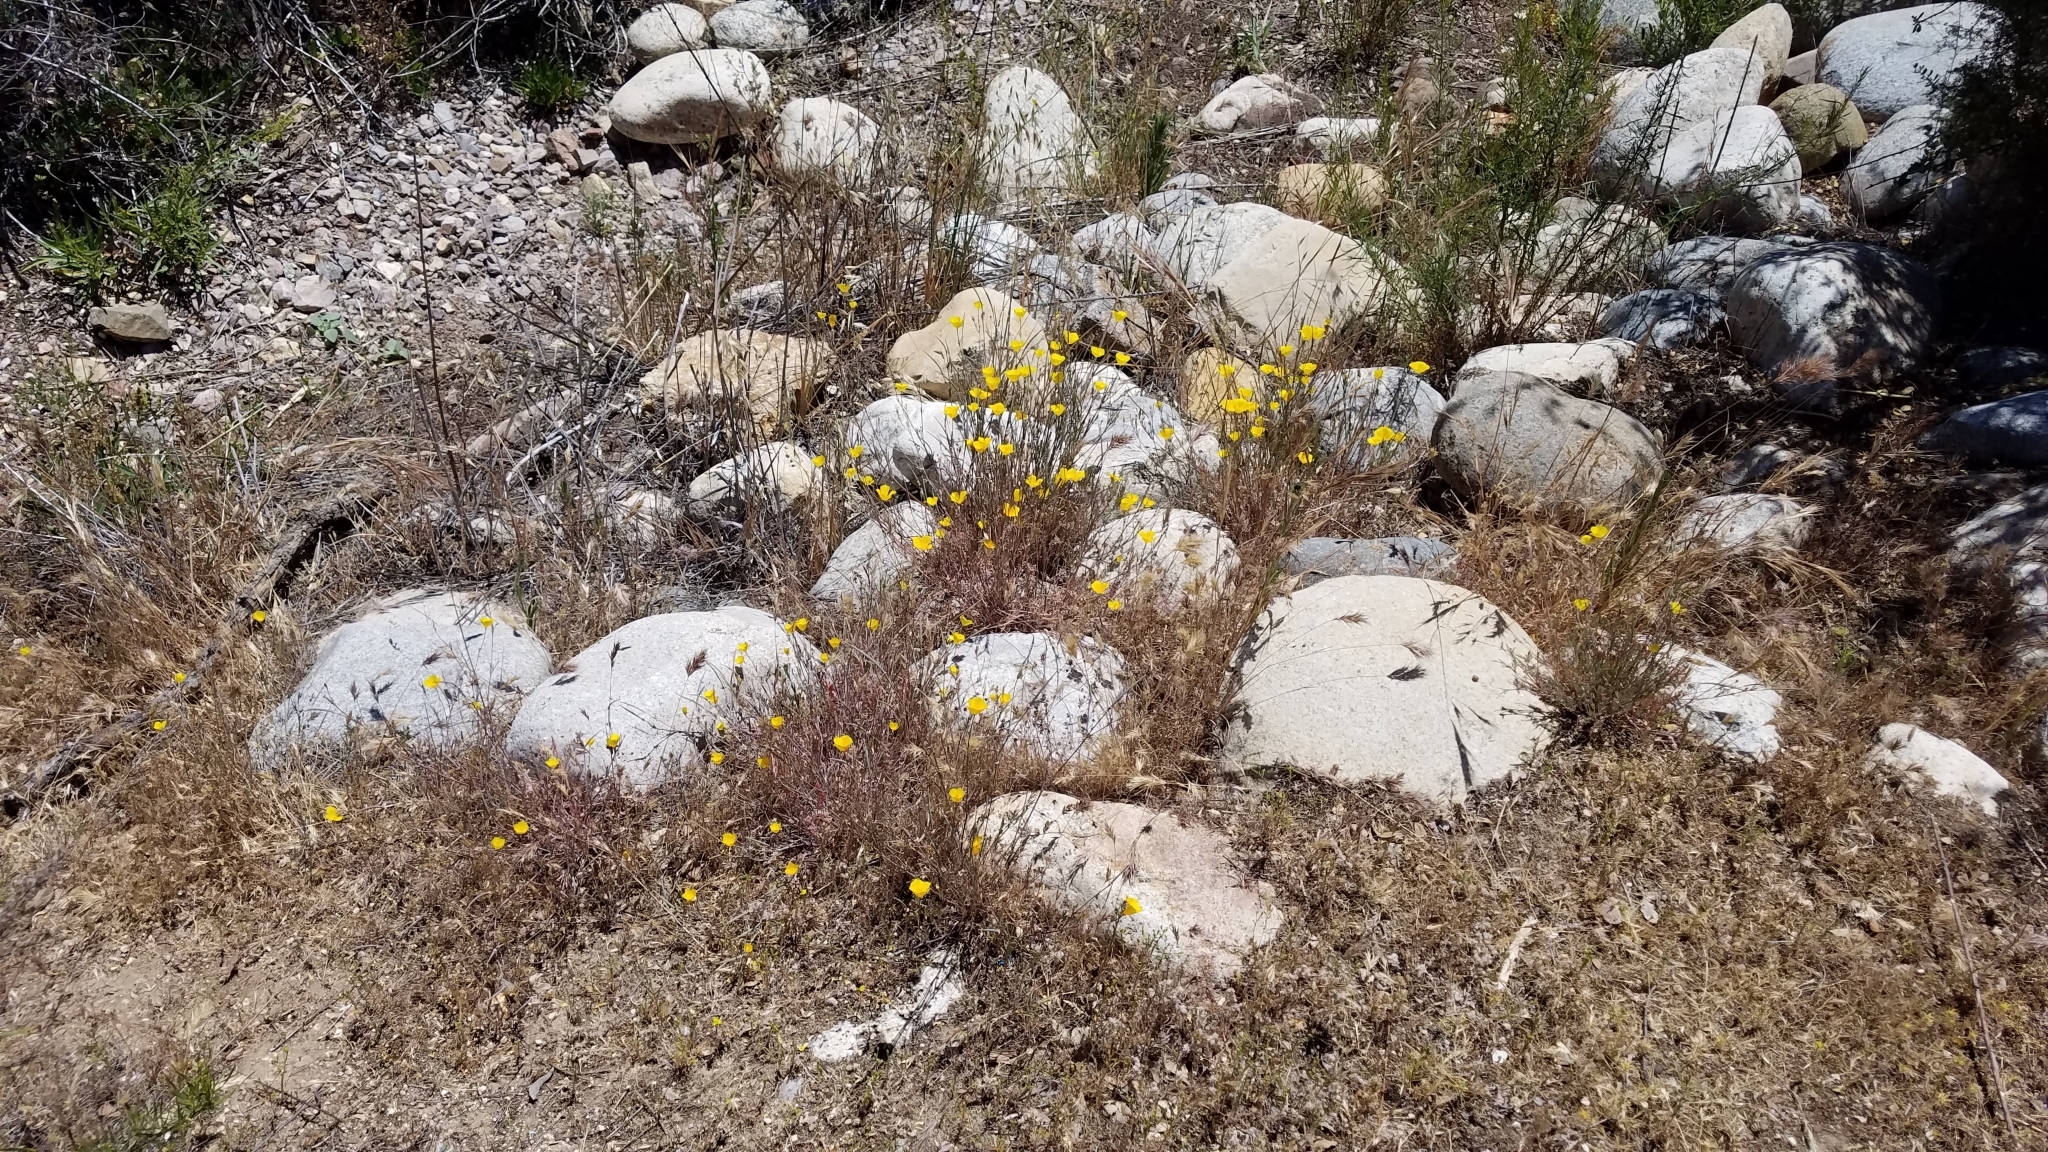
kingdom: Plantae
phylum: Tracheophyta
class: Magnoliopsida
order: Ranunculales
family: Papaveraceae
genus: Eschscholzia
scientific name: Eschscholzia californica
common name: California poppy
